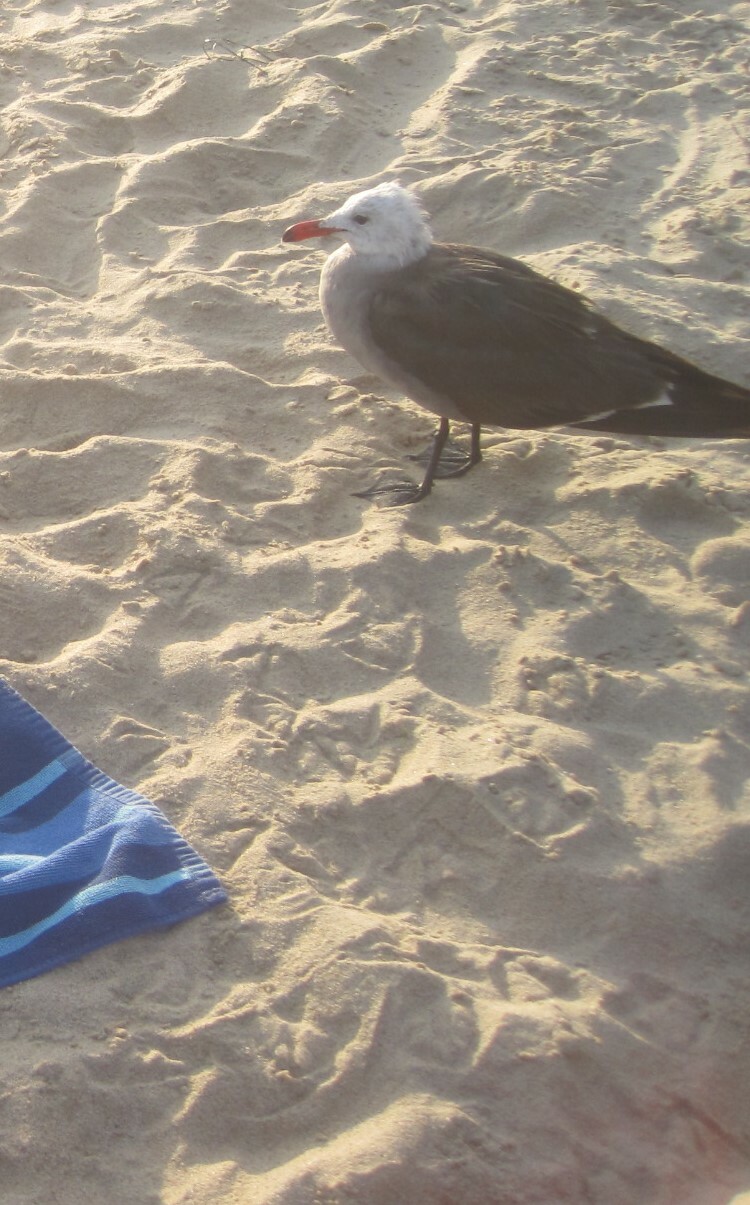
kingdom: Animalia
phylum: Chordata
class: Aves
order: Charadriiformes
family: Laridae
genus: Larus
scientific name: Larus heermanni
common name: Heermann's gull
